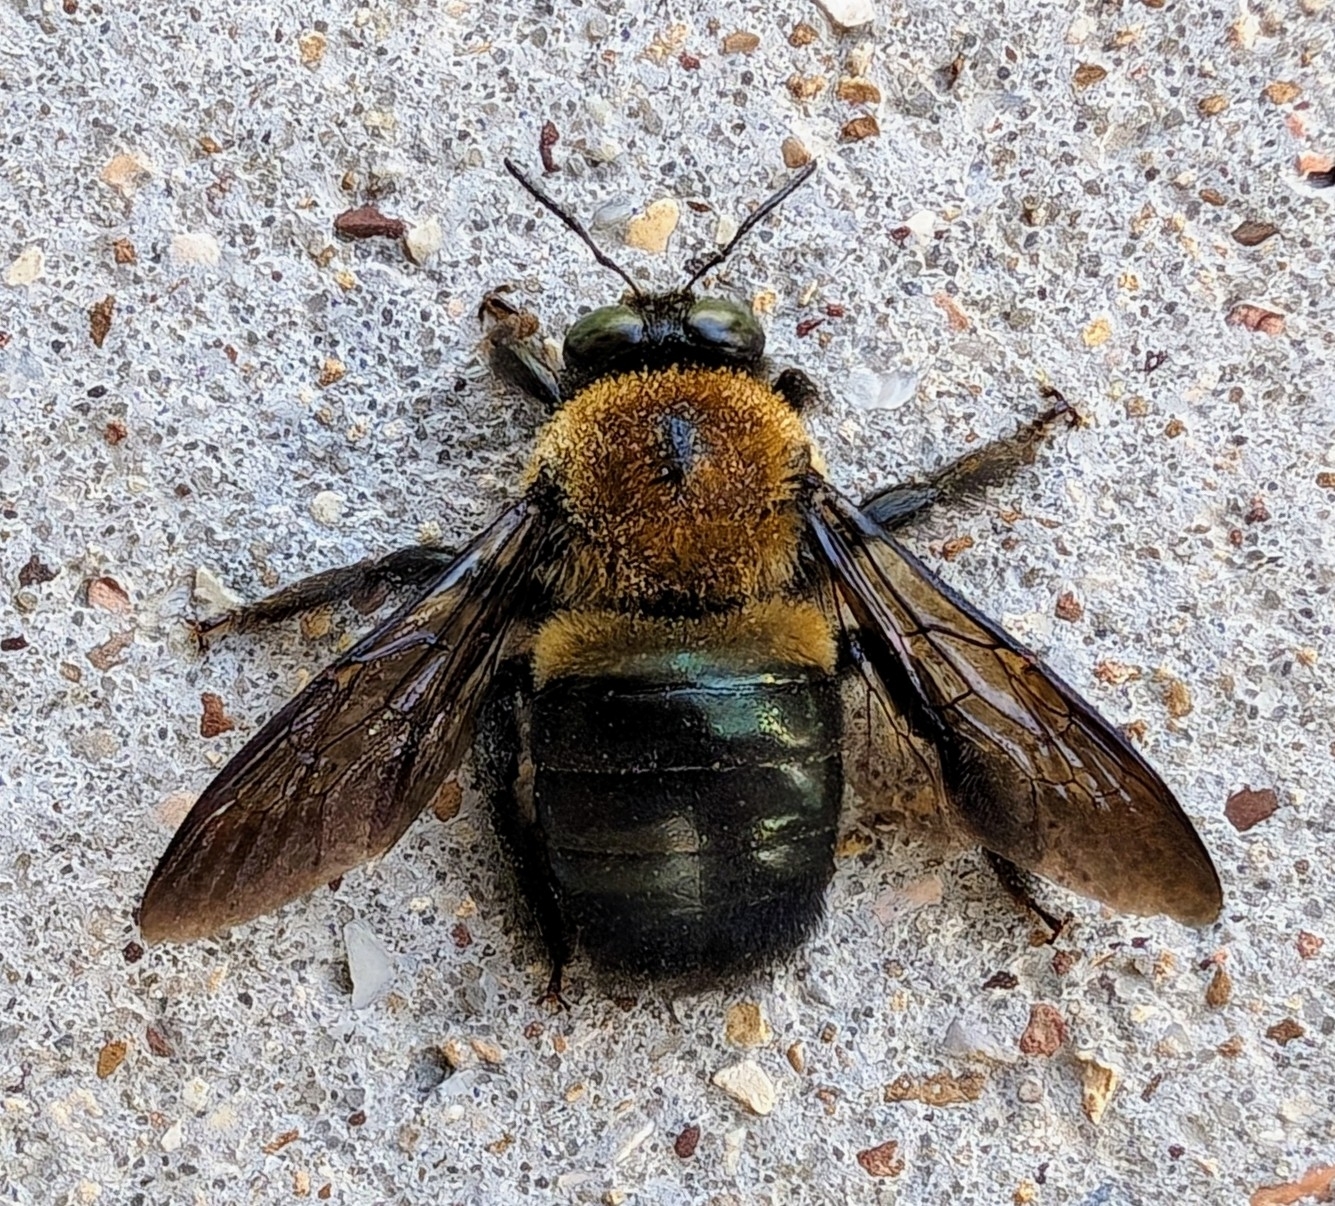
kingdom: Animalia
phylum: Arthropoda
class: Insecta
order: Hymenoptera
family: Apidae
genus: Xylocopa
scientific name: Xylocopa virginica
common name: Carpenter bee
